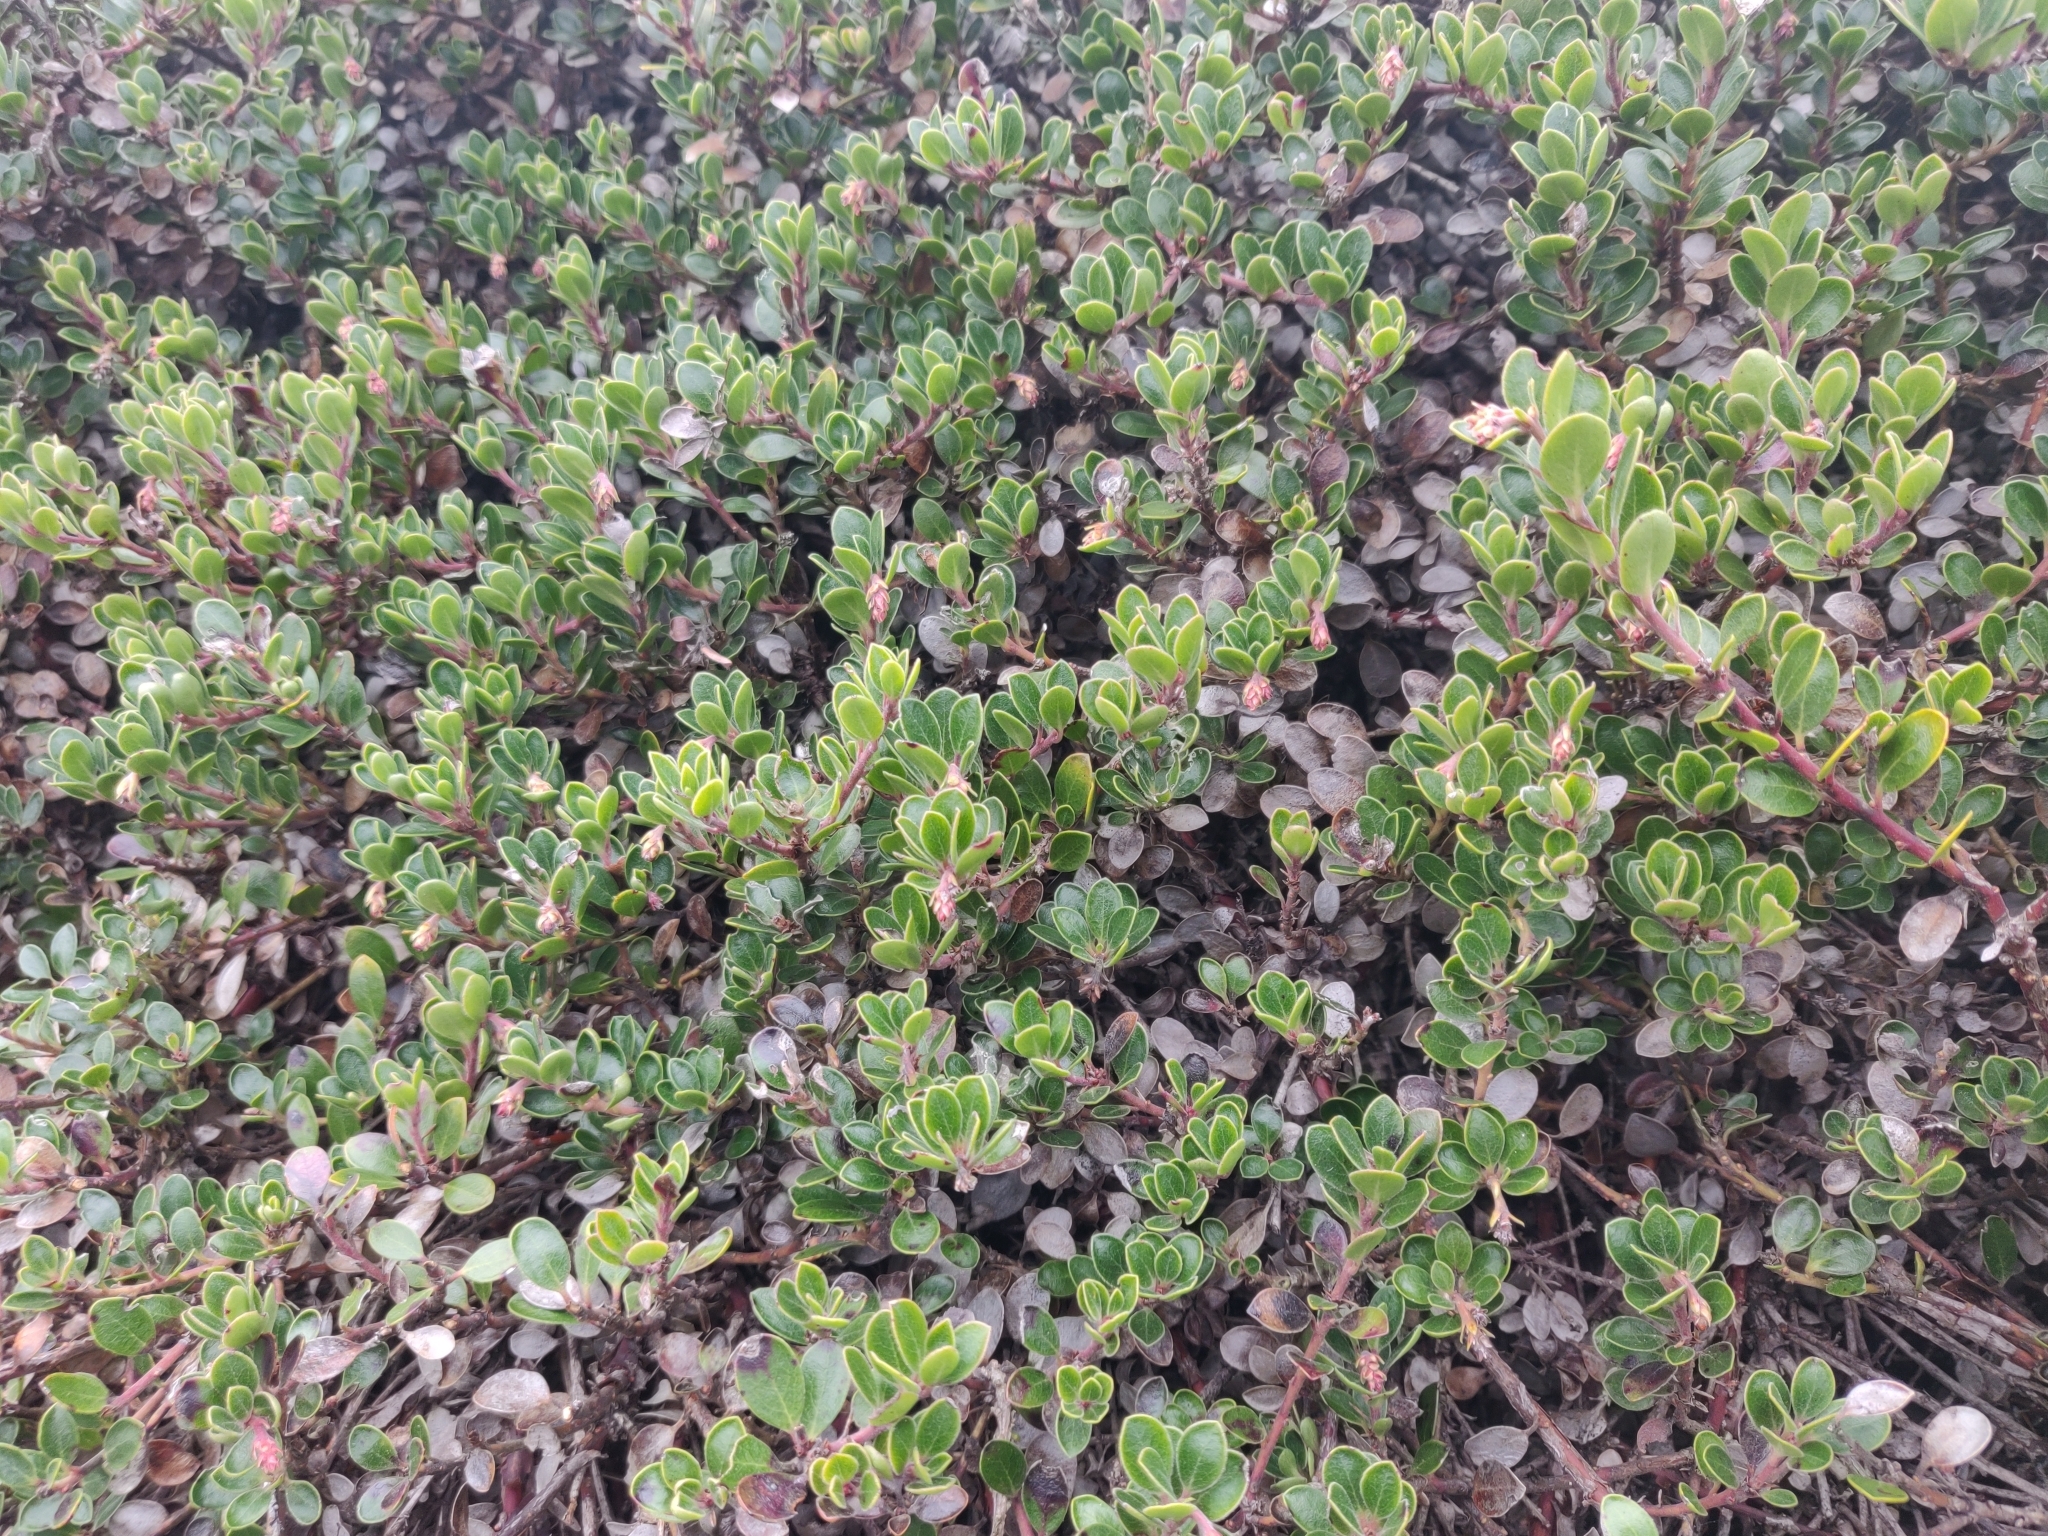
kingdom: Plantae
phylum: Tracheophyta
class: Magnoliopsida
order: Ericales
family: Ericaceae
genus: Arctostaphylos
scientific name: Arctostaphylos uva-ursi
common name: Bearberry
